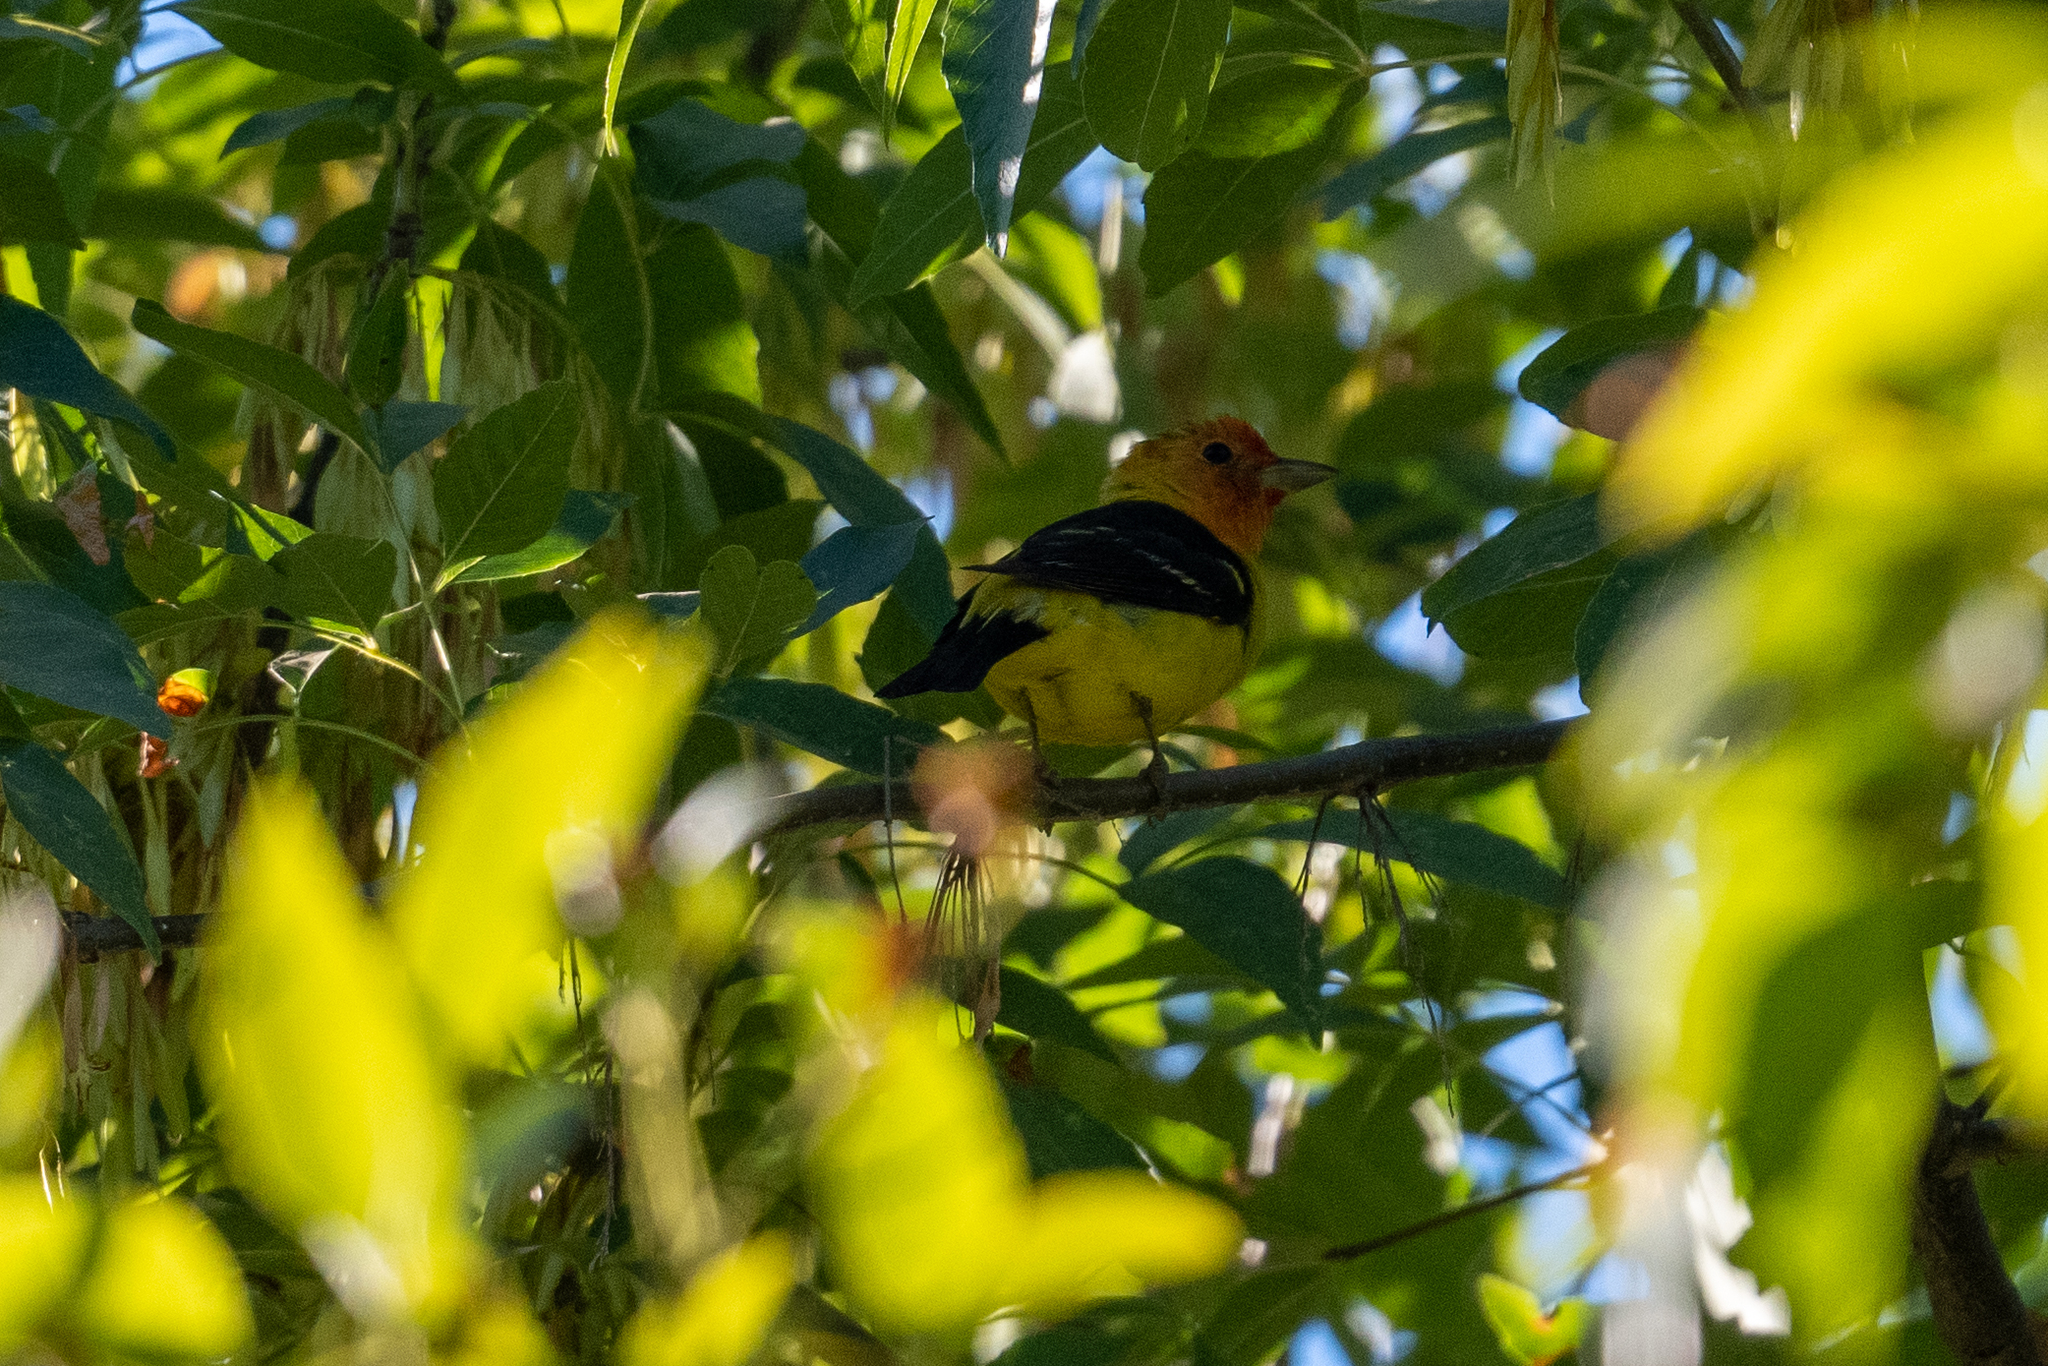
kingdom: Animalia
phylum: Chordata
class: Aves
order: Passeriformes
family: Cardinalidae
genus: Piranga
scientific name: Piranga ludoviciana
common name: Western tanager
